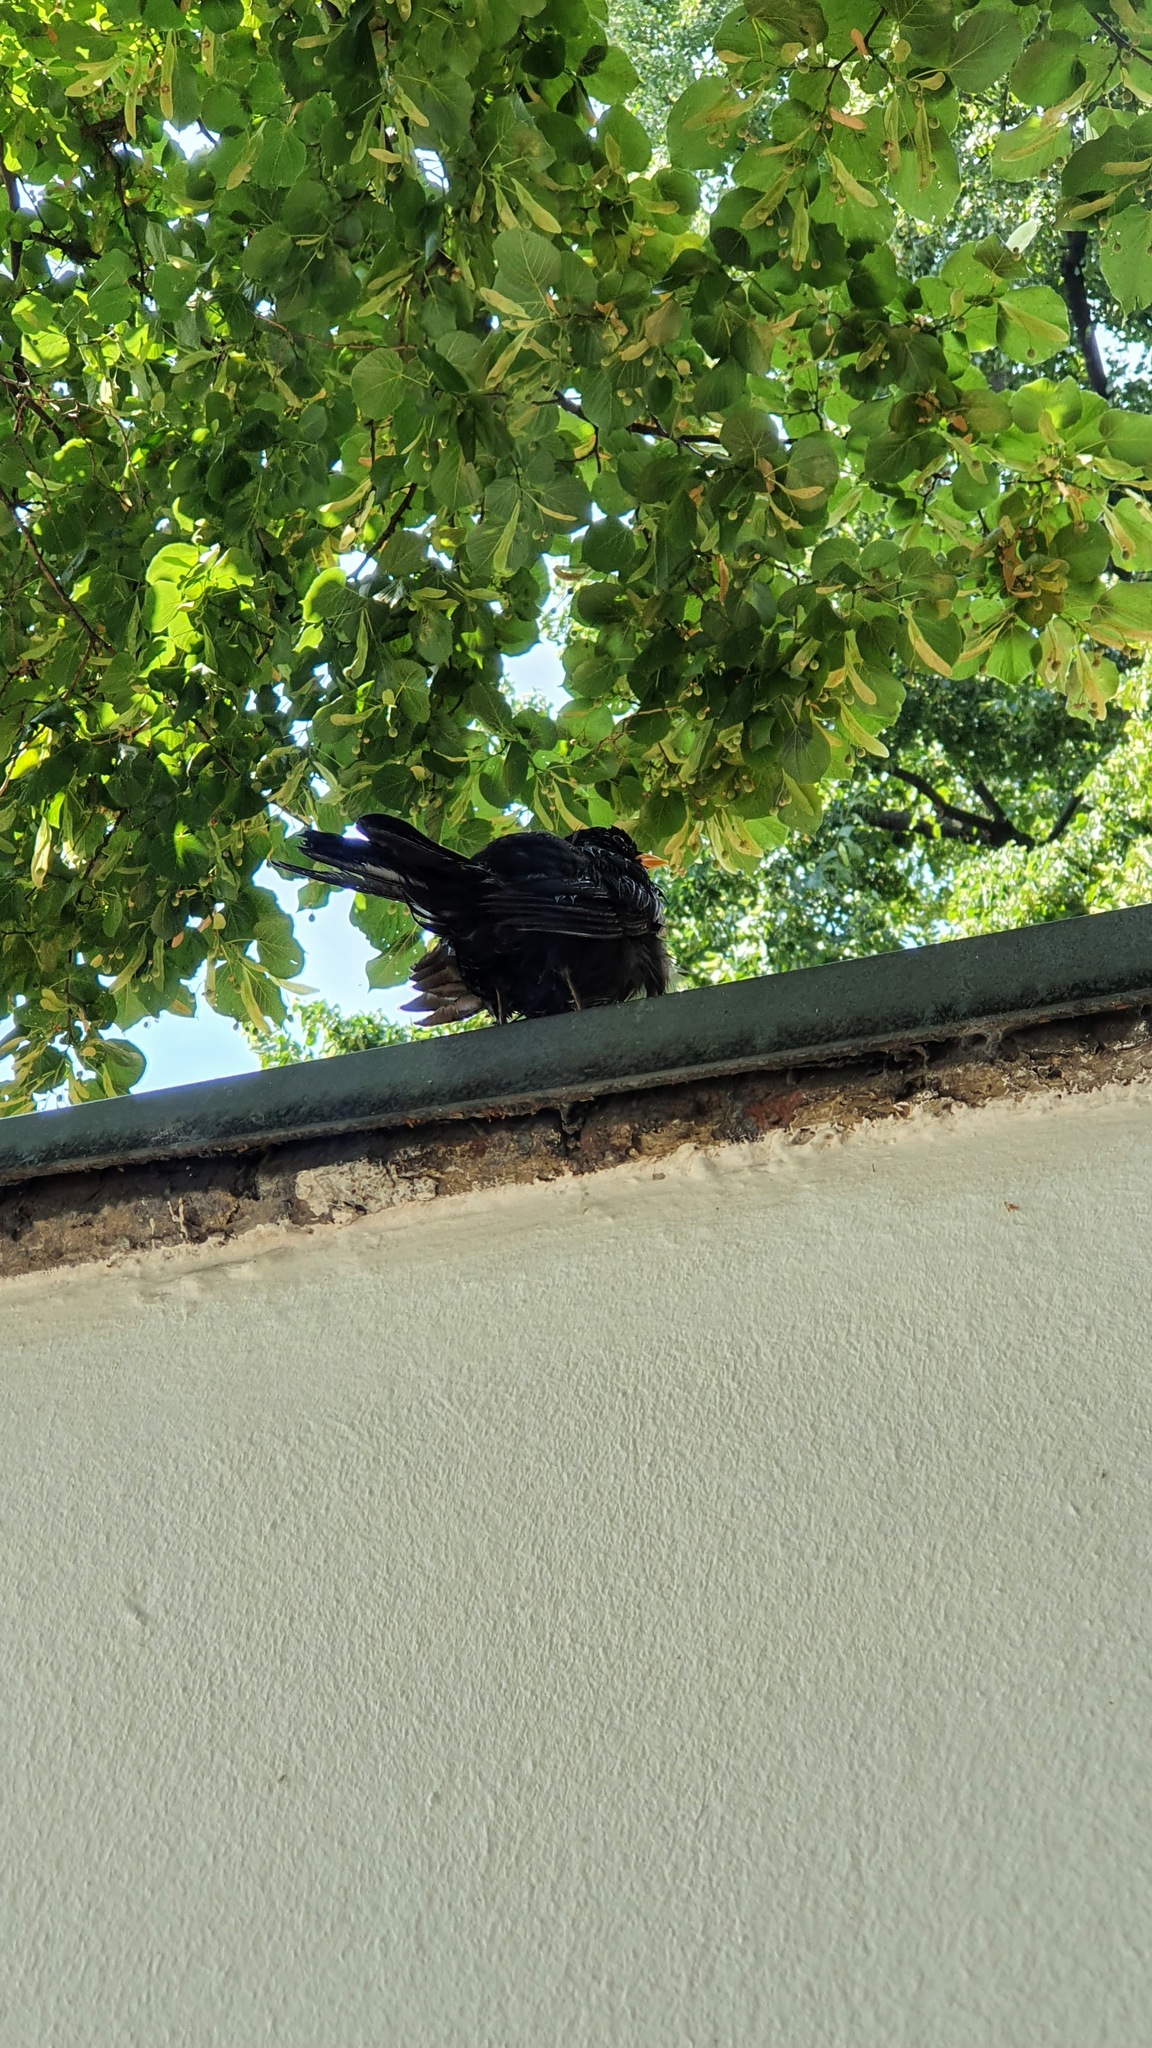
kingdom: Animalia
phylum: Chordata
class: Aves
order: Passeriformes
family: Turdidae
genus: Turdus
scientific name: Turdus merula
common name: Common blackbird
